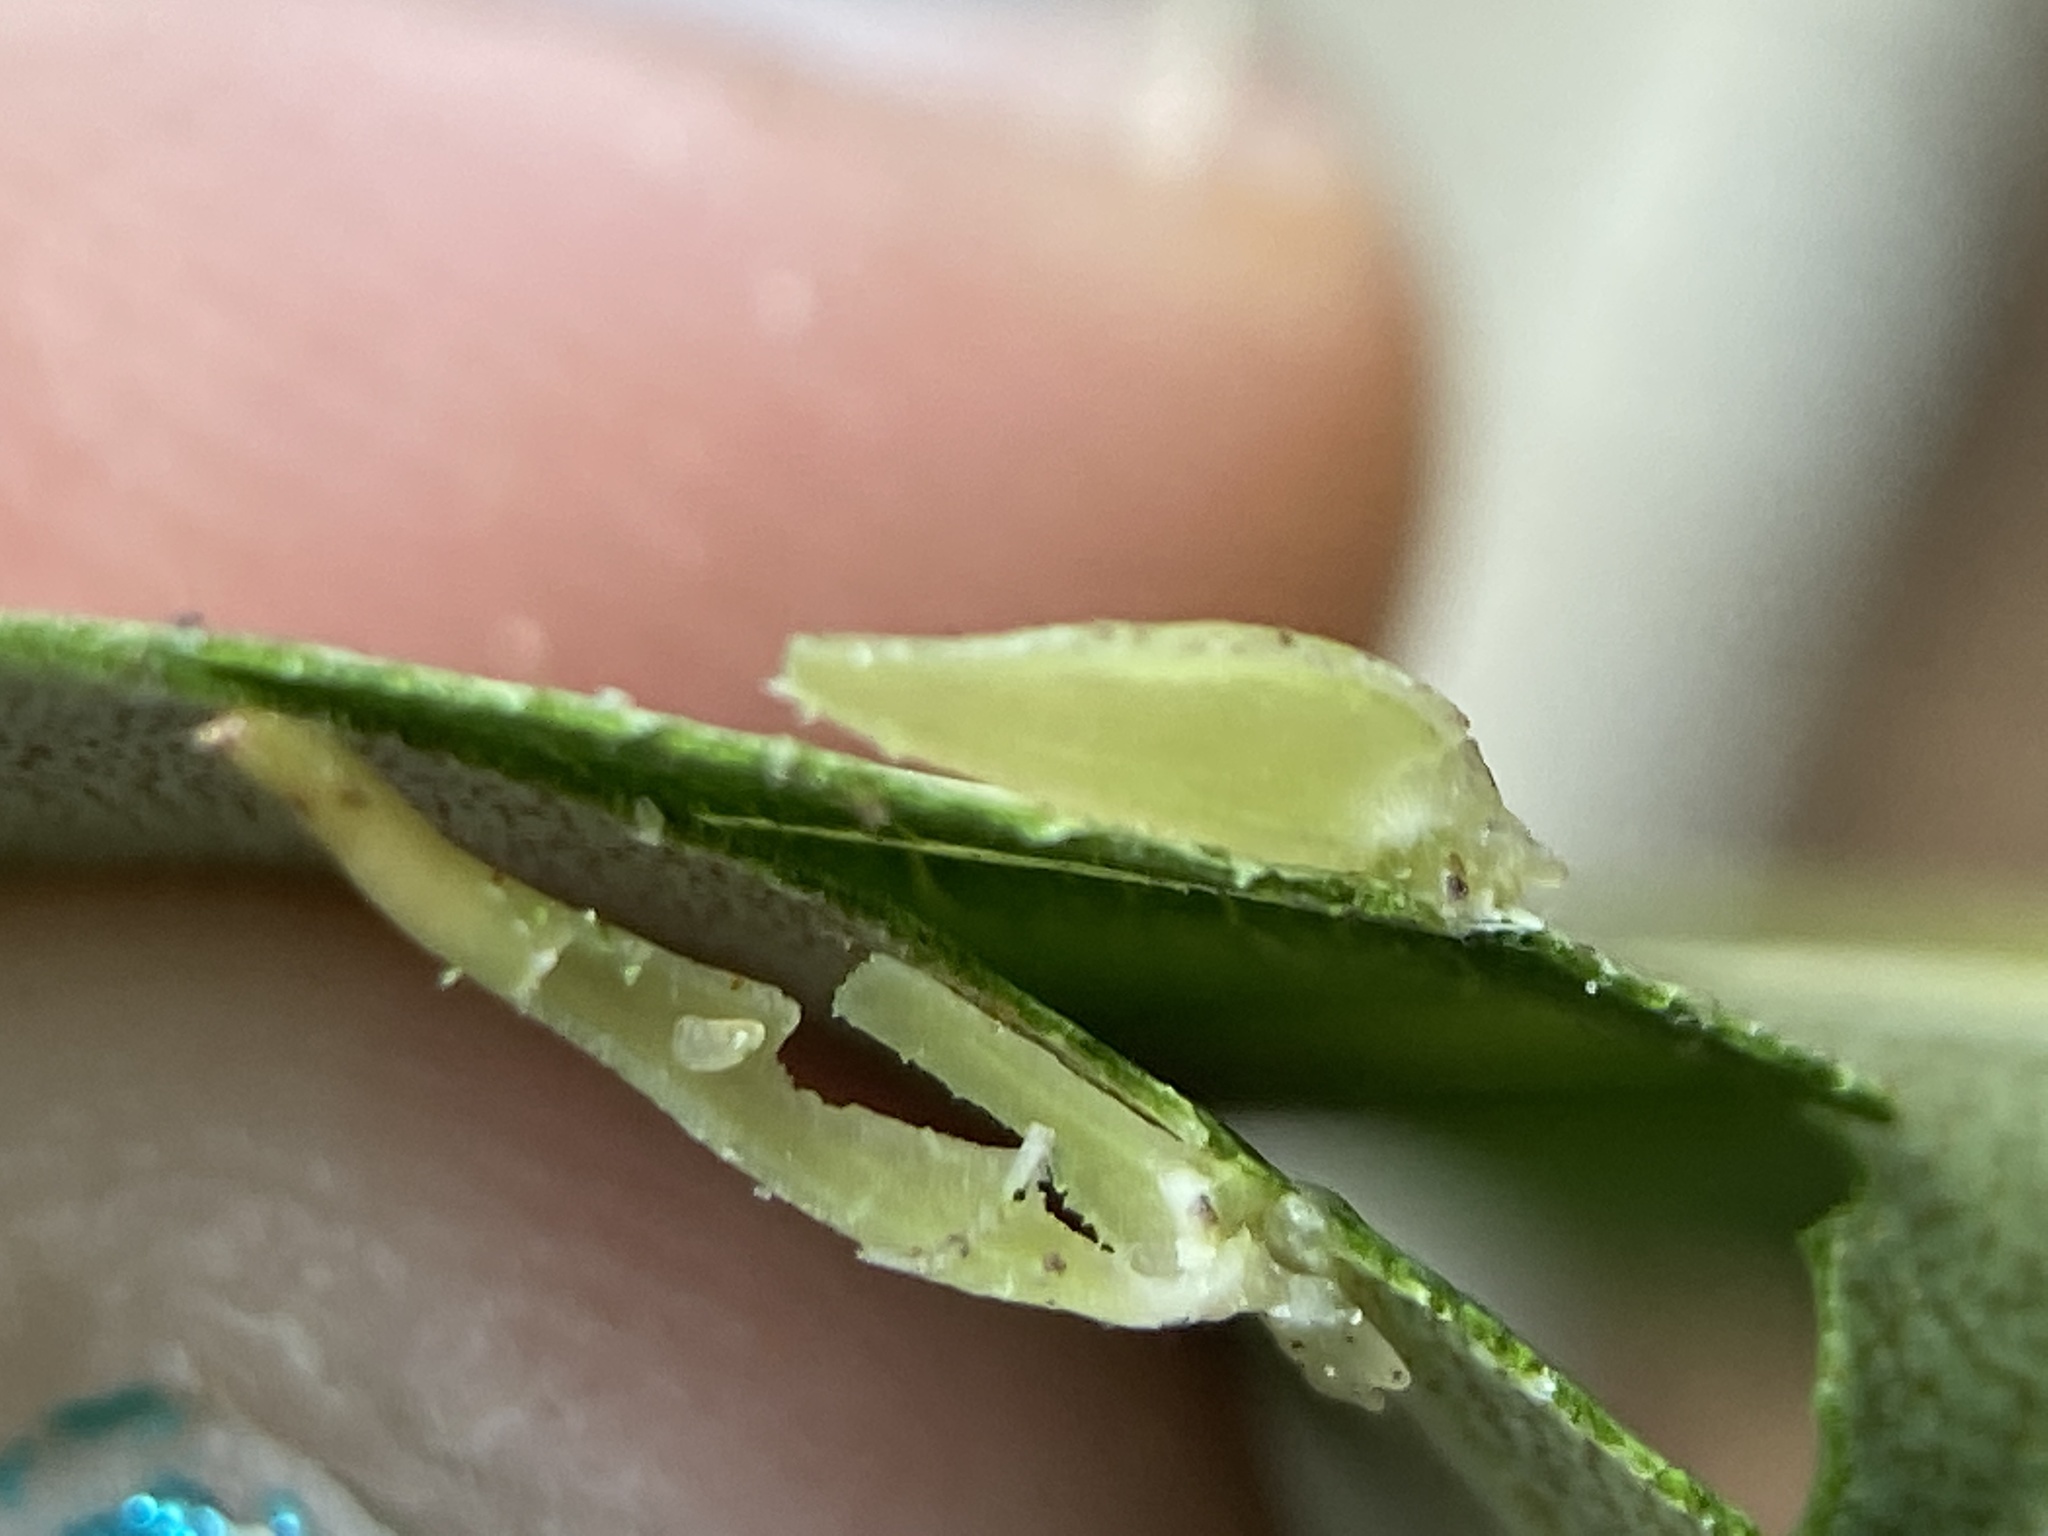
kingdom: Animalia
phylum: Arthropoda
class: Insecta
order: Diptera
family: Cecidomyiidae
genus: Caryomyia
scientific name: Caryomyia
